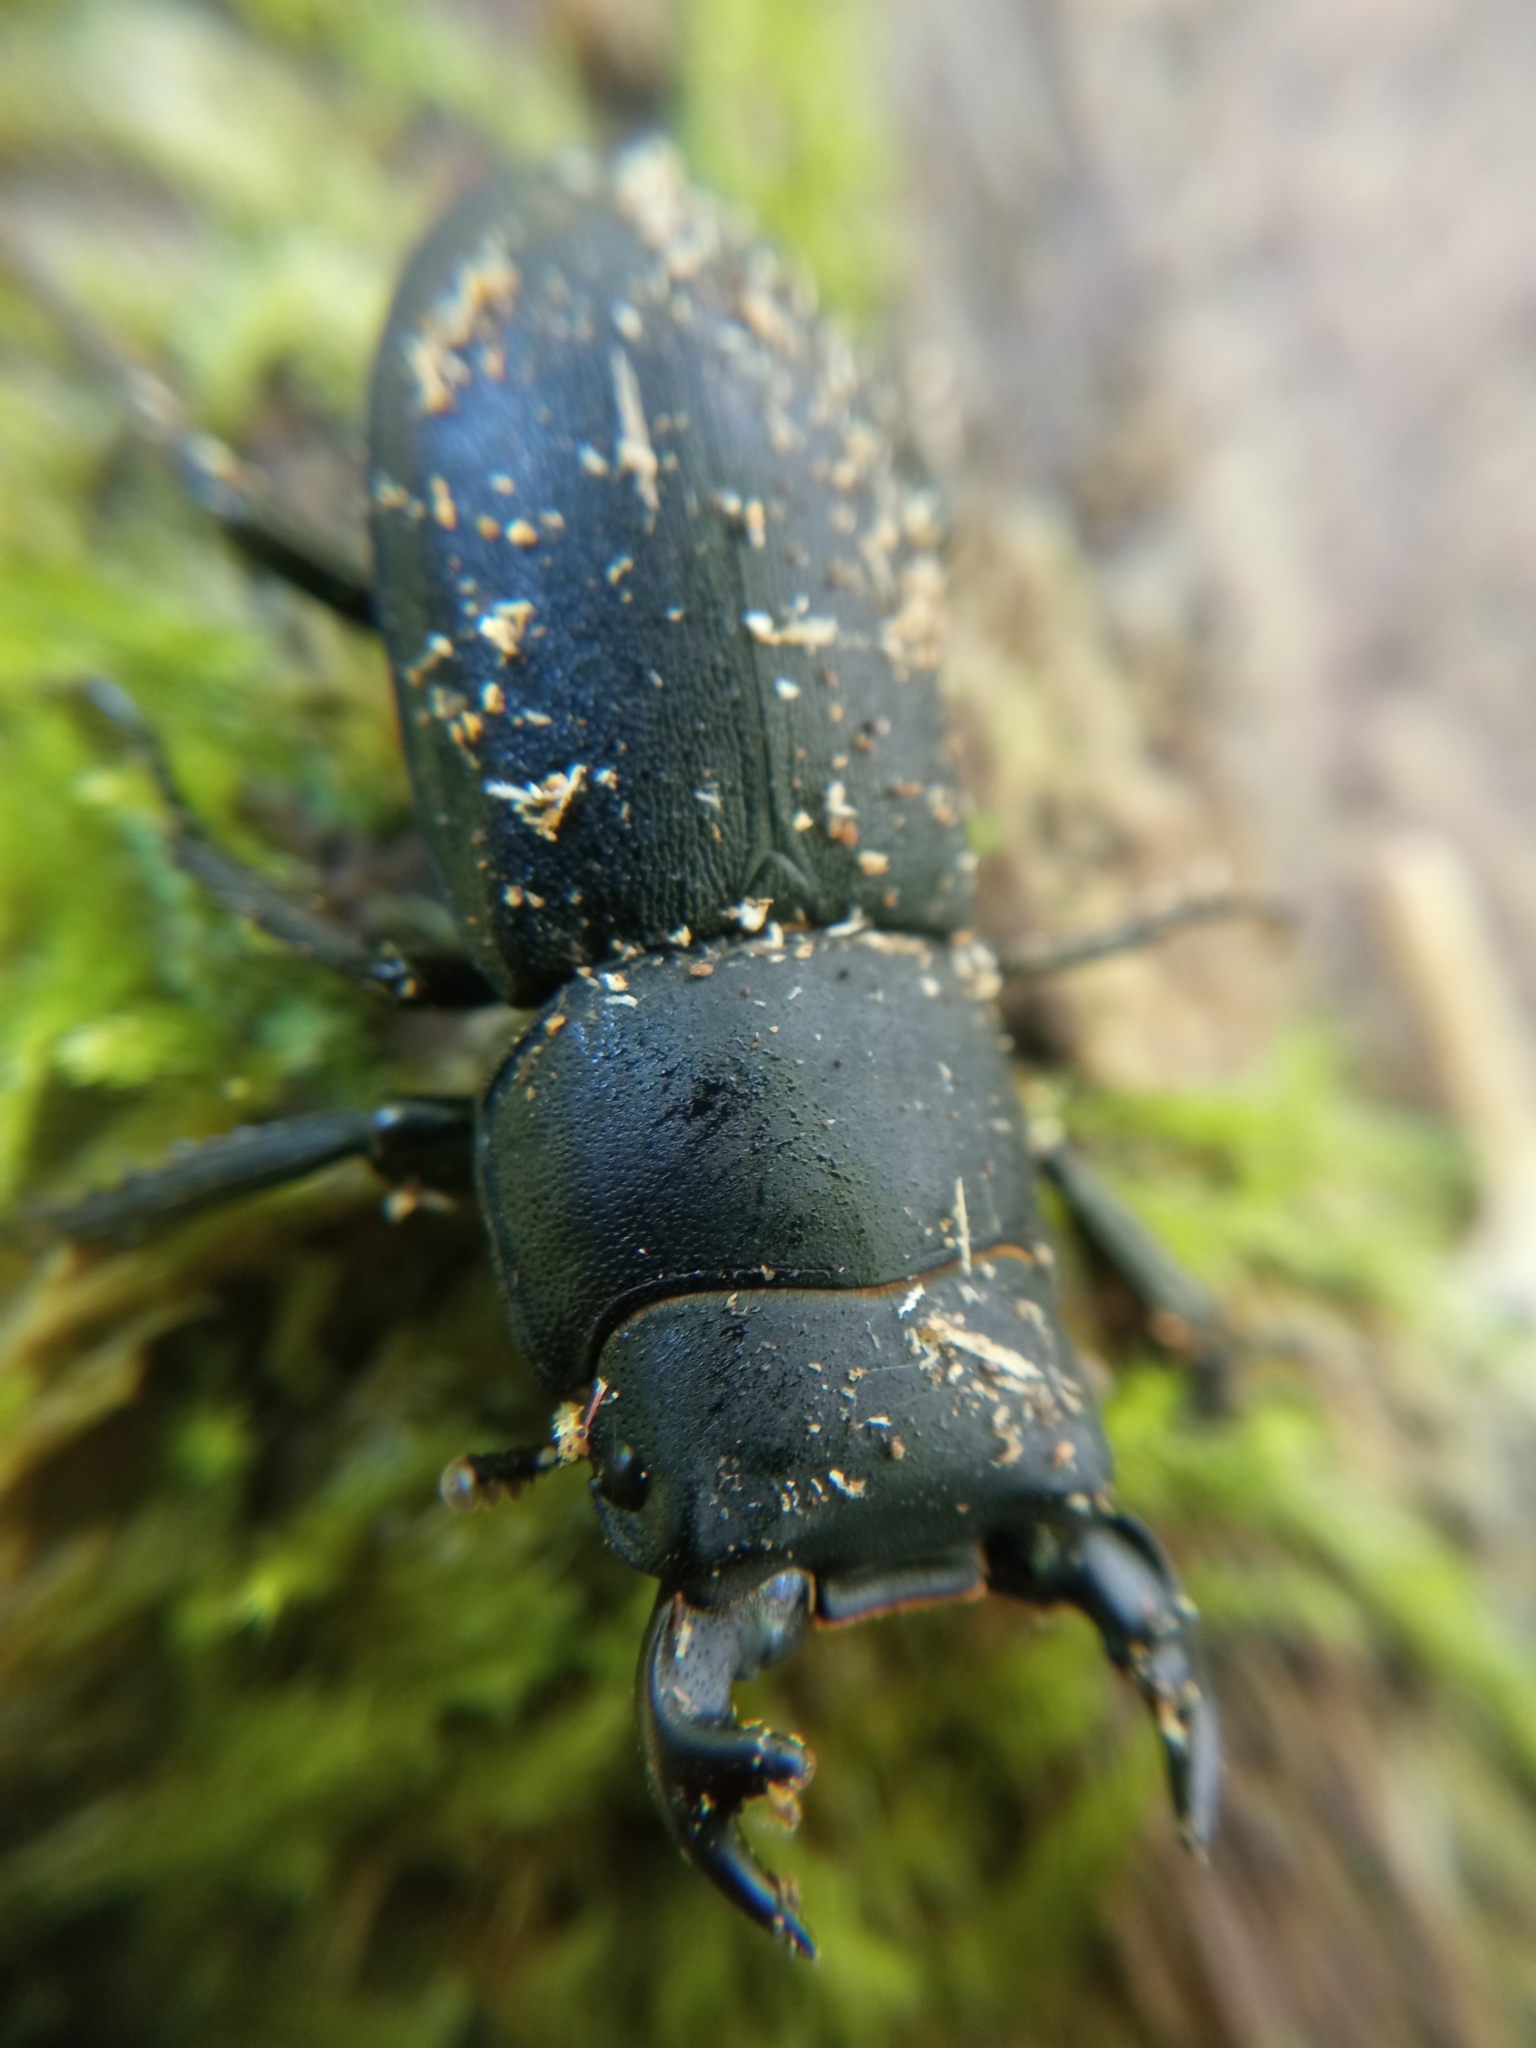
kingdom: Animalia
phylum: Arthropoda
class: Insecta
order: Coleoptera
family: Lucanidae
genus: Dorcus
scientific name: Dorcus parallelipipedus
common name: Lesser stag beetle
